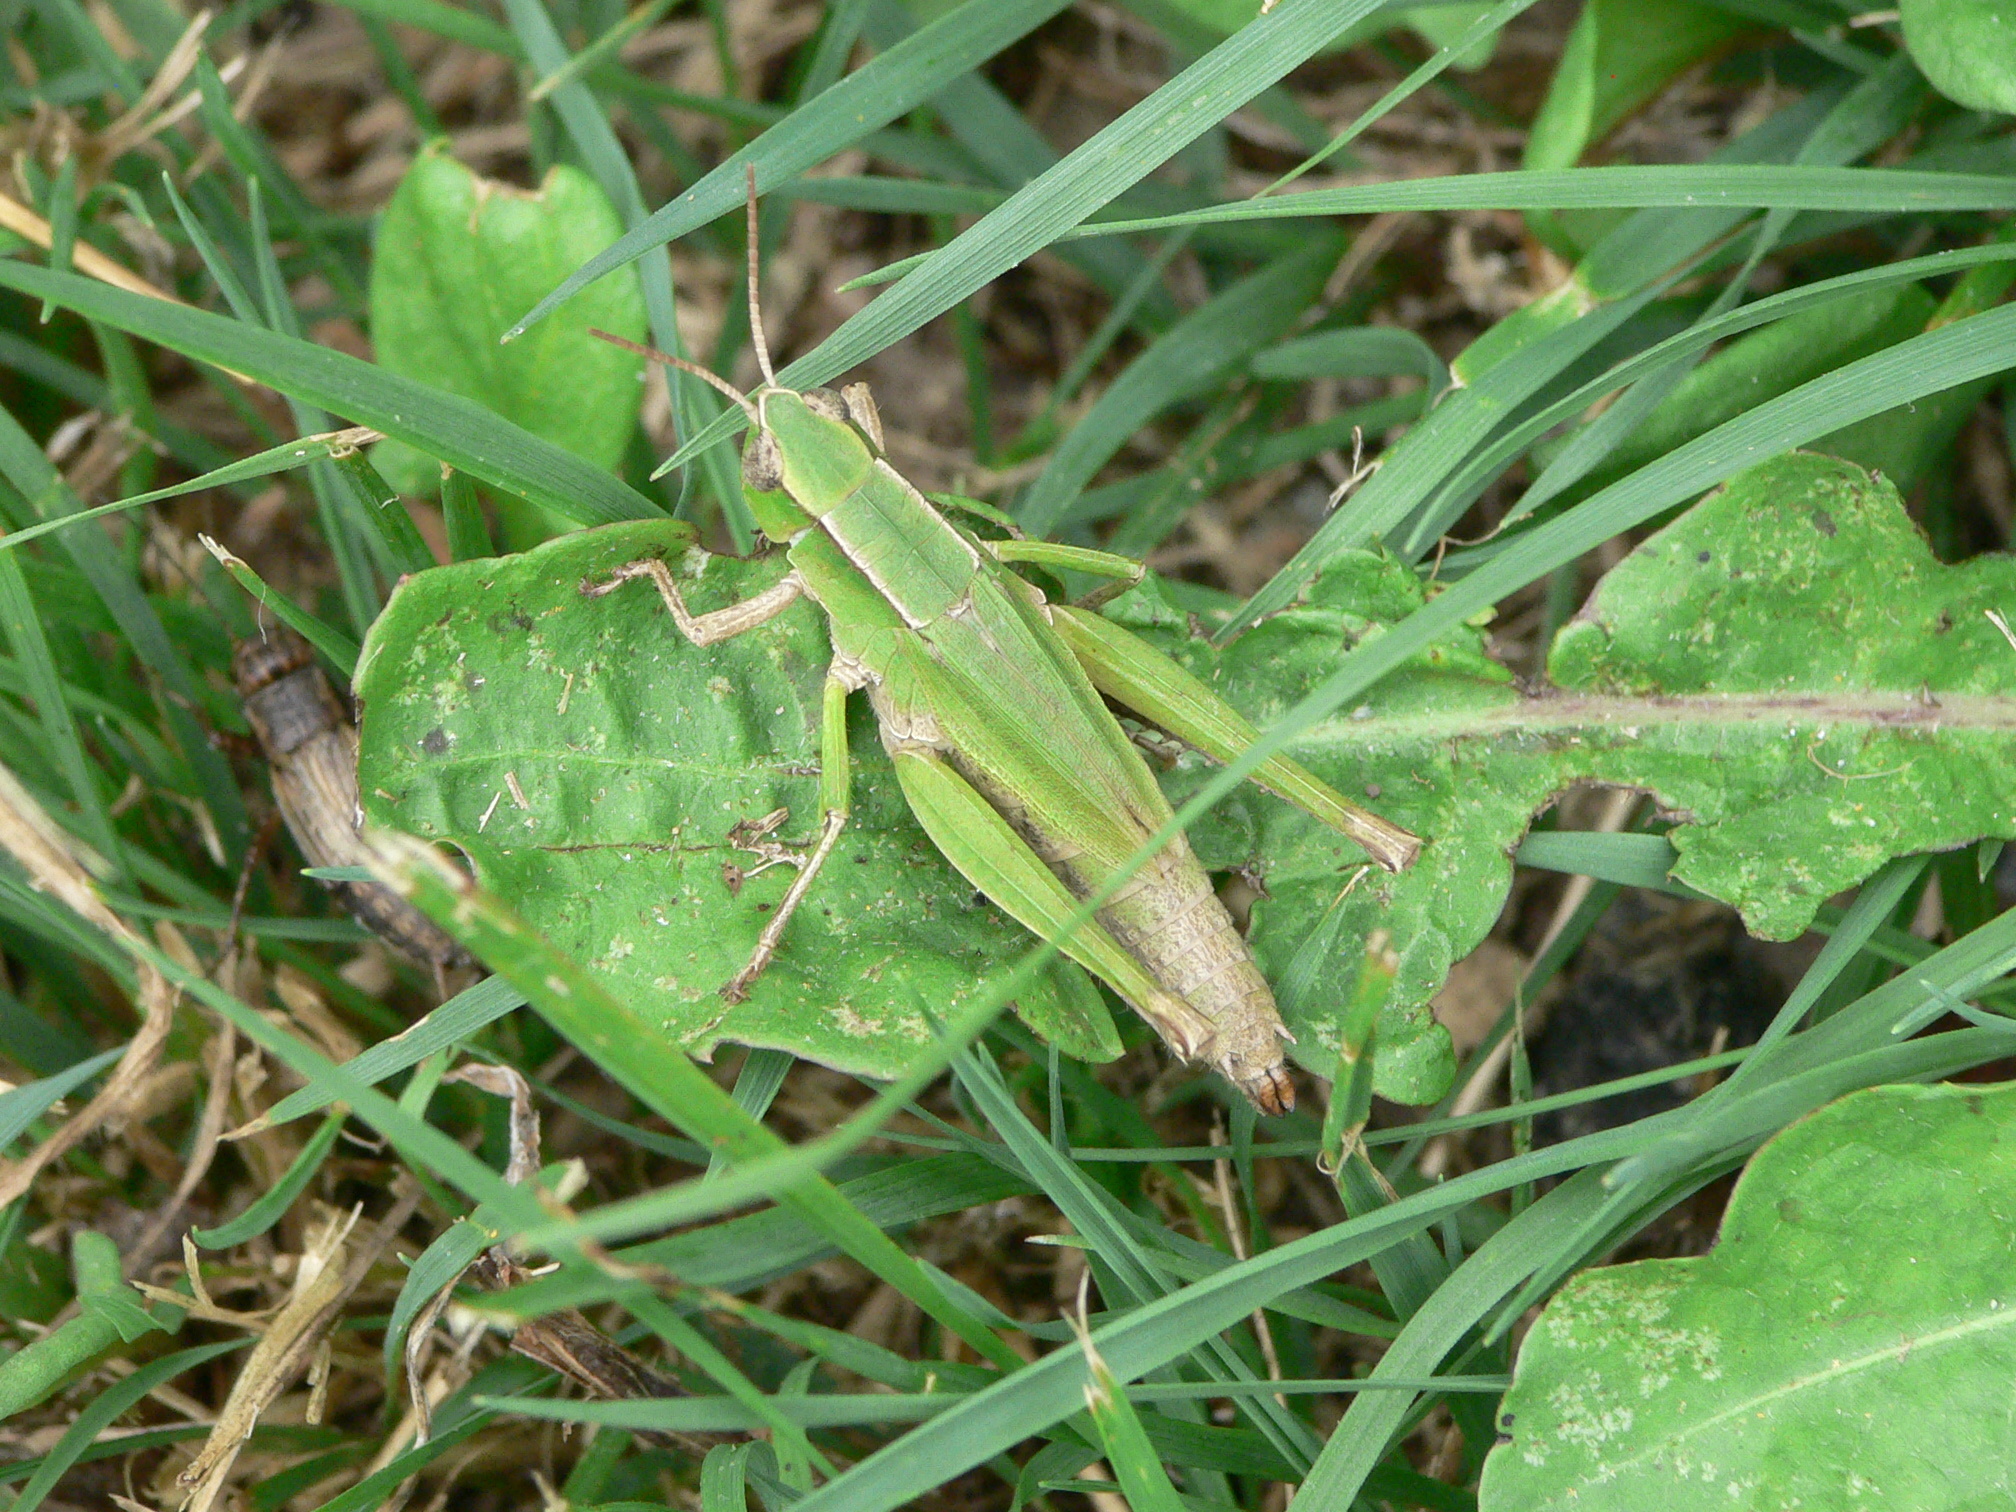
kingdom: Animalia
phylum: Arthropoda
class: Insecta
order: Orthoptera
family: Acrididae
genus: Dichromorpha
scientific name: Dichromorpha viridis
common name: Short-winged green grasshopper
